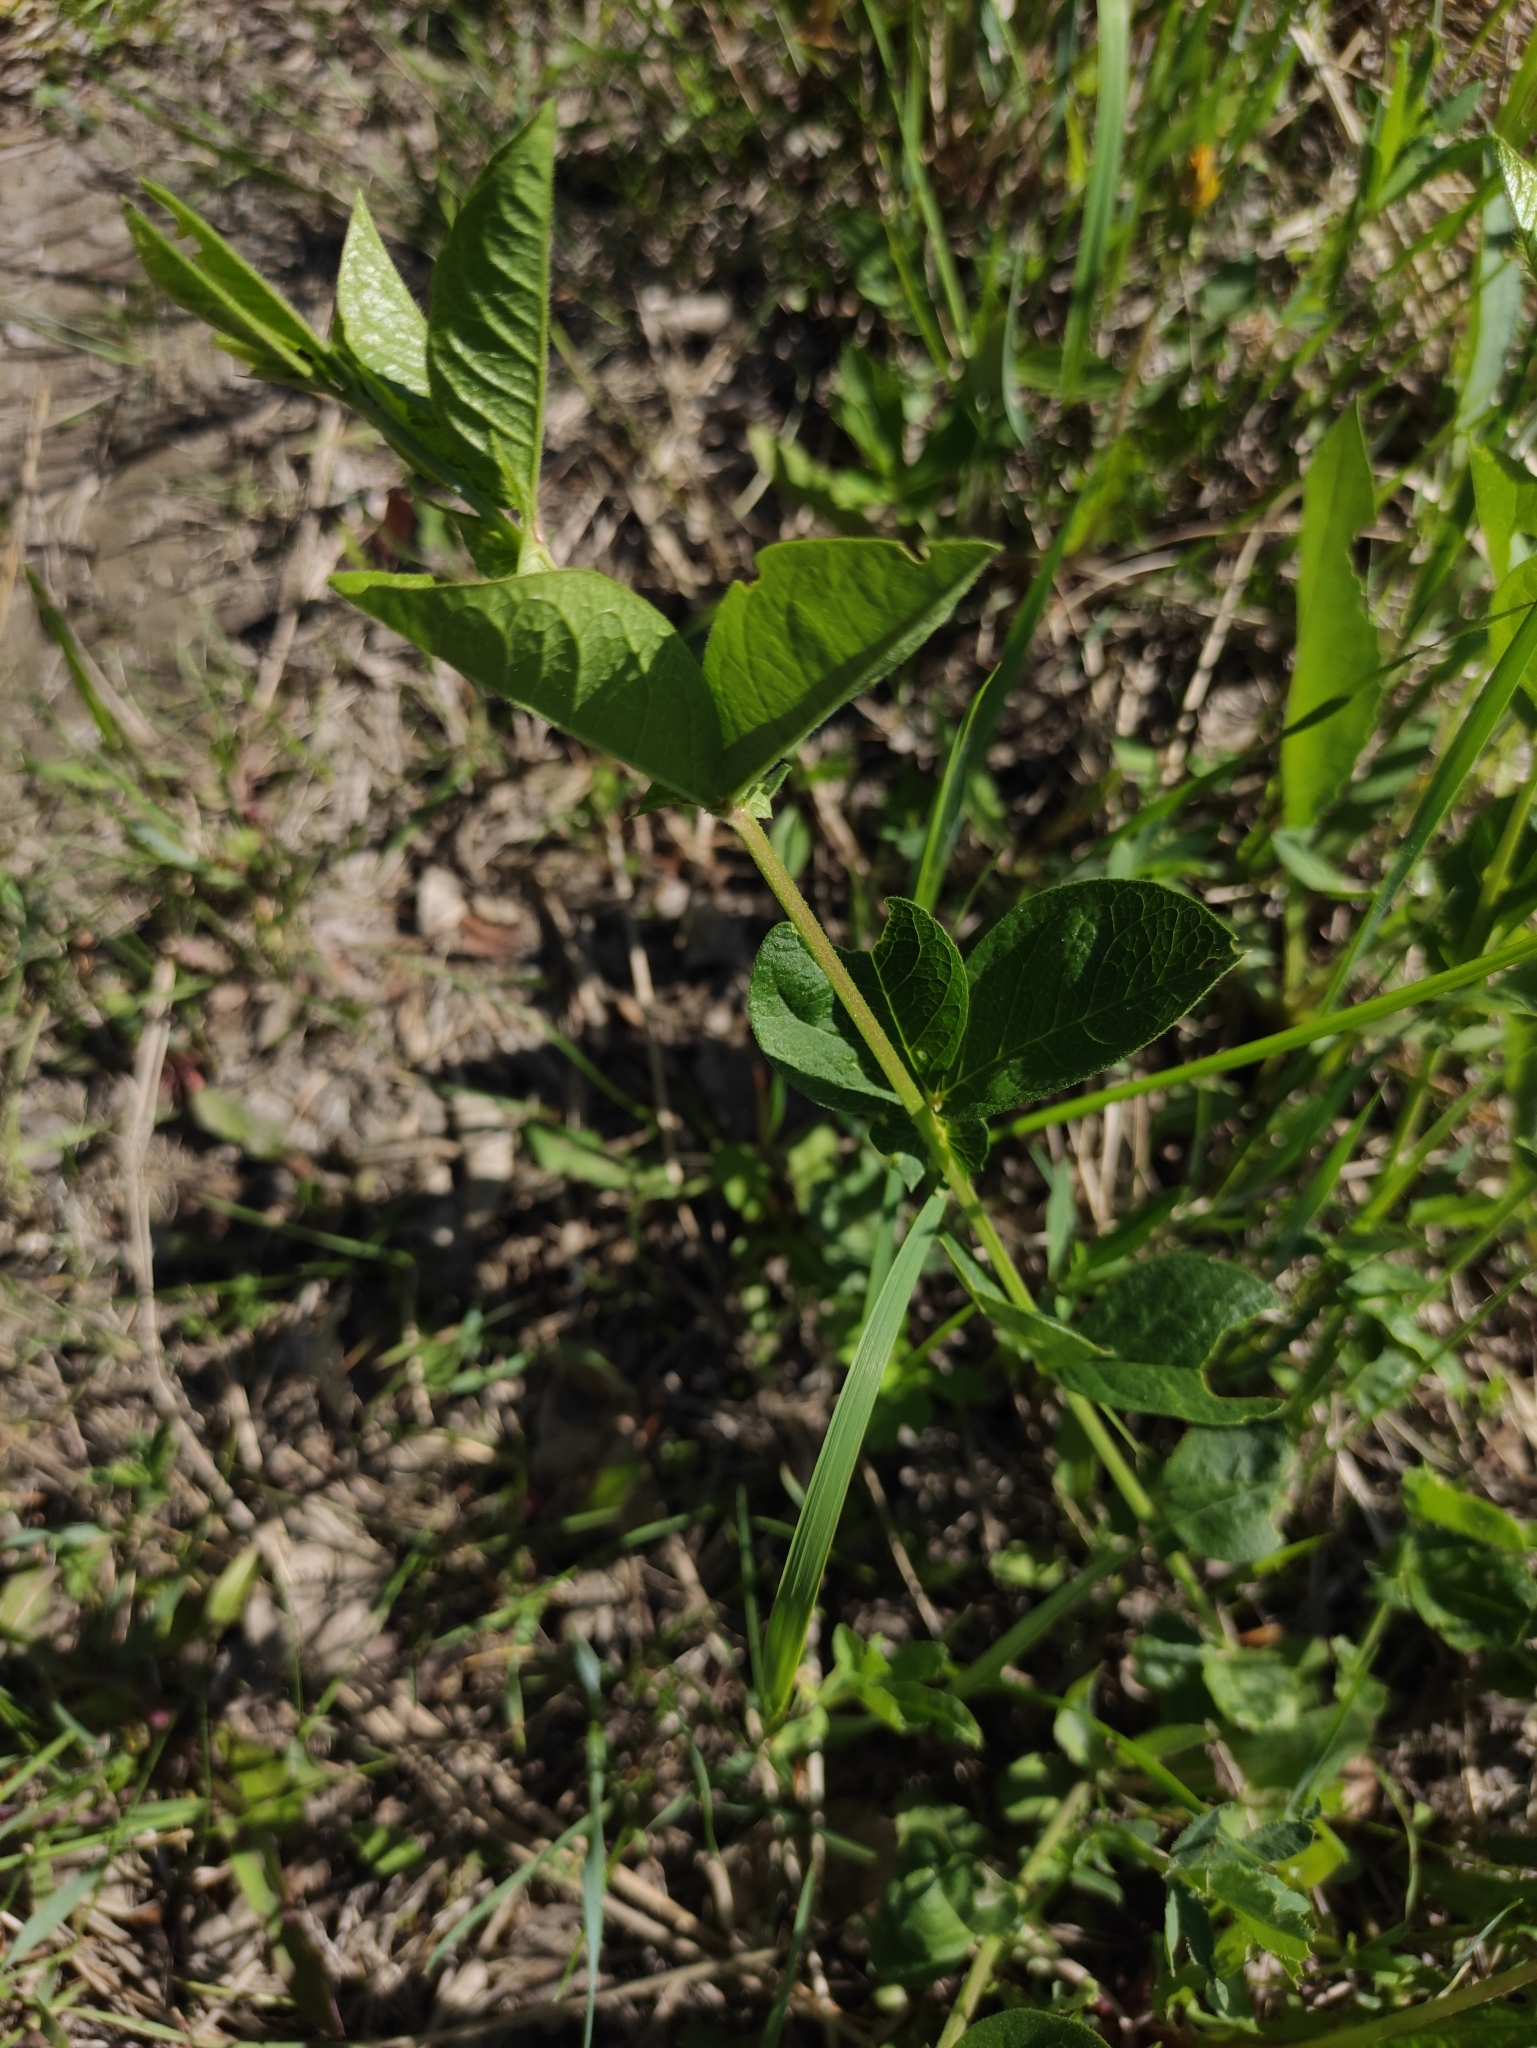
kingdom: Plantae
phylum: Tracheophyta
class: Magnoliopsida
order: Fabales
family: Fabaceae
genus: Vicia
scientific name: Vicia unijuga
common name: Two-leaf vetch
